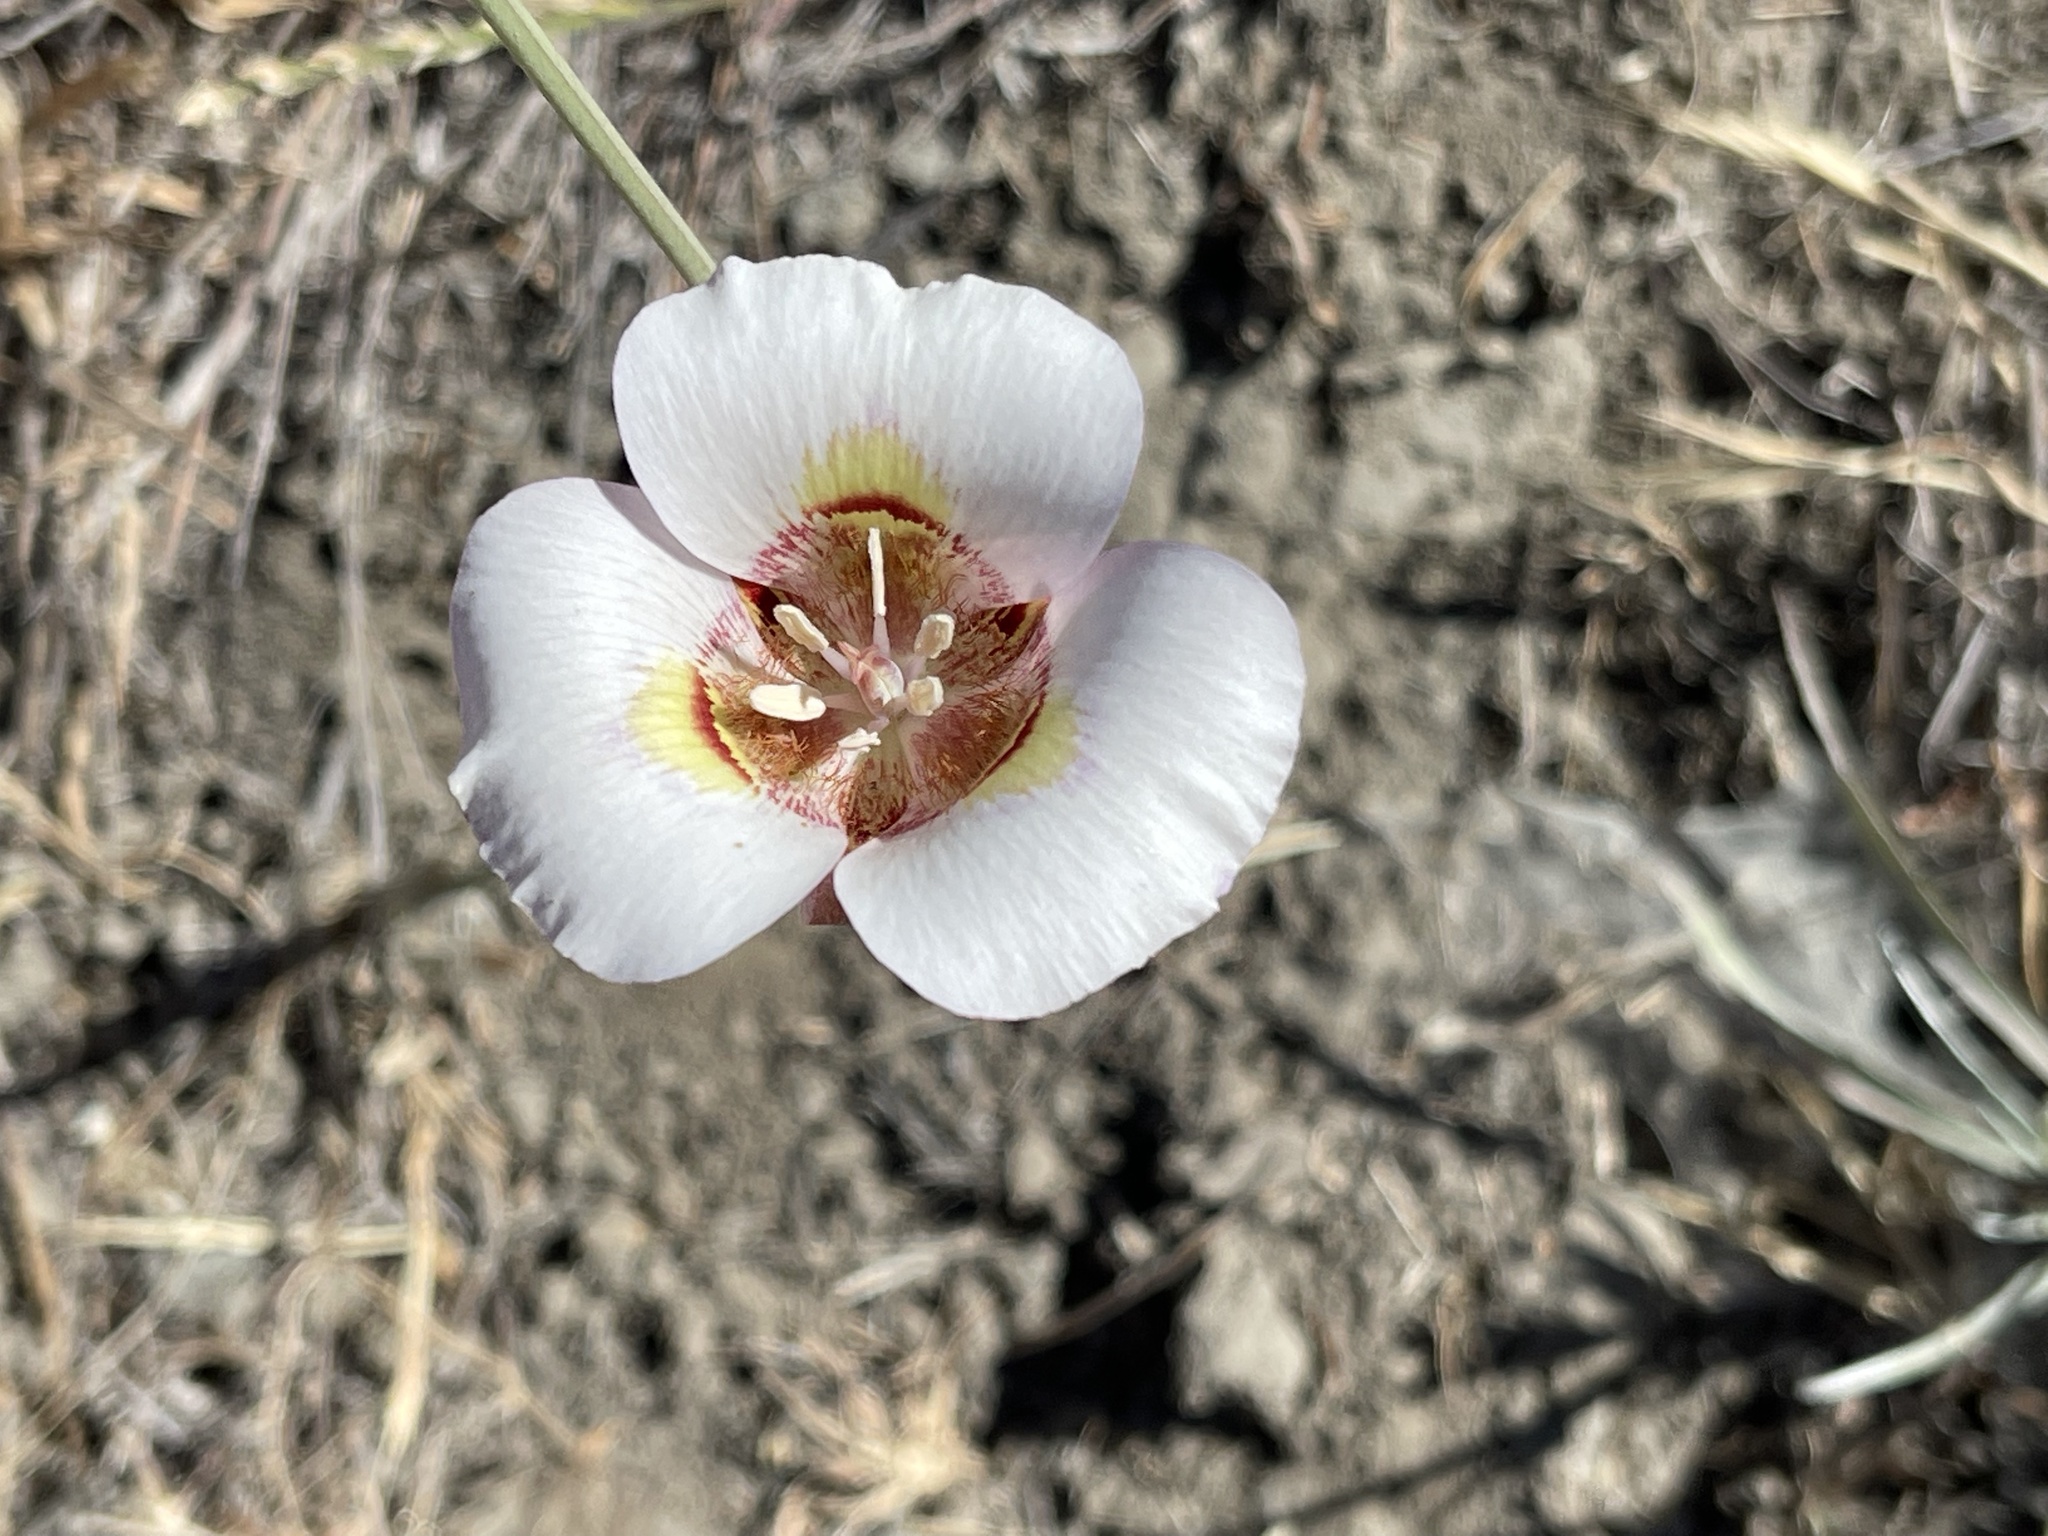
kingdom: Plantae
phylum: Tracheophyta
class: Liliopsida
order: Liliales
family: Liliaceae
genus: Calochortus
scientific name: Calochortus argillosus
